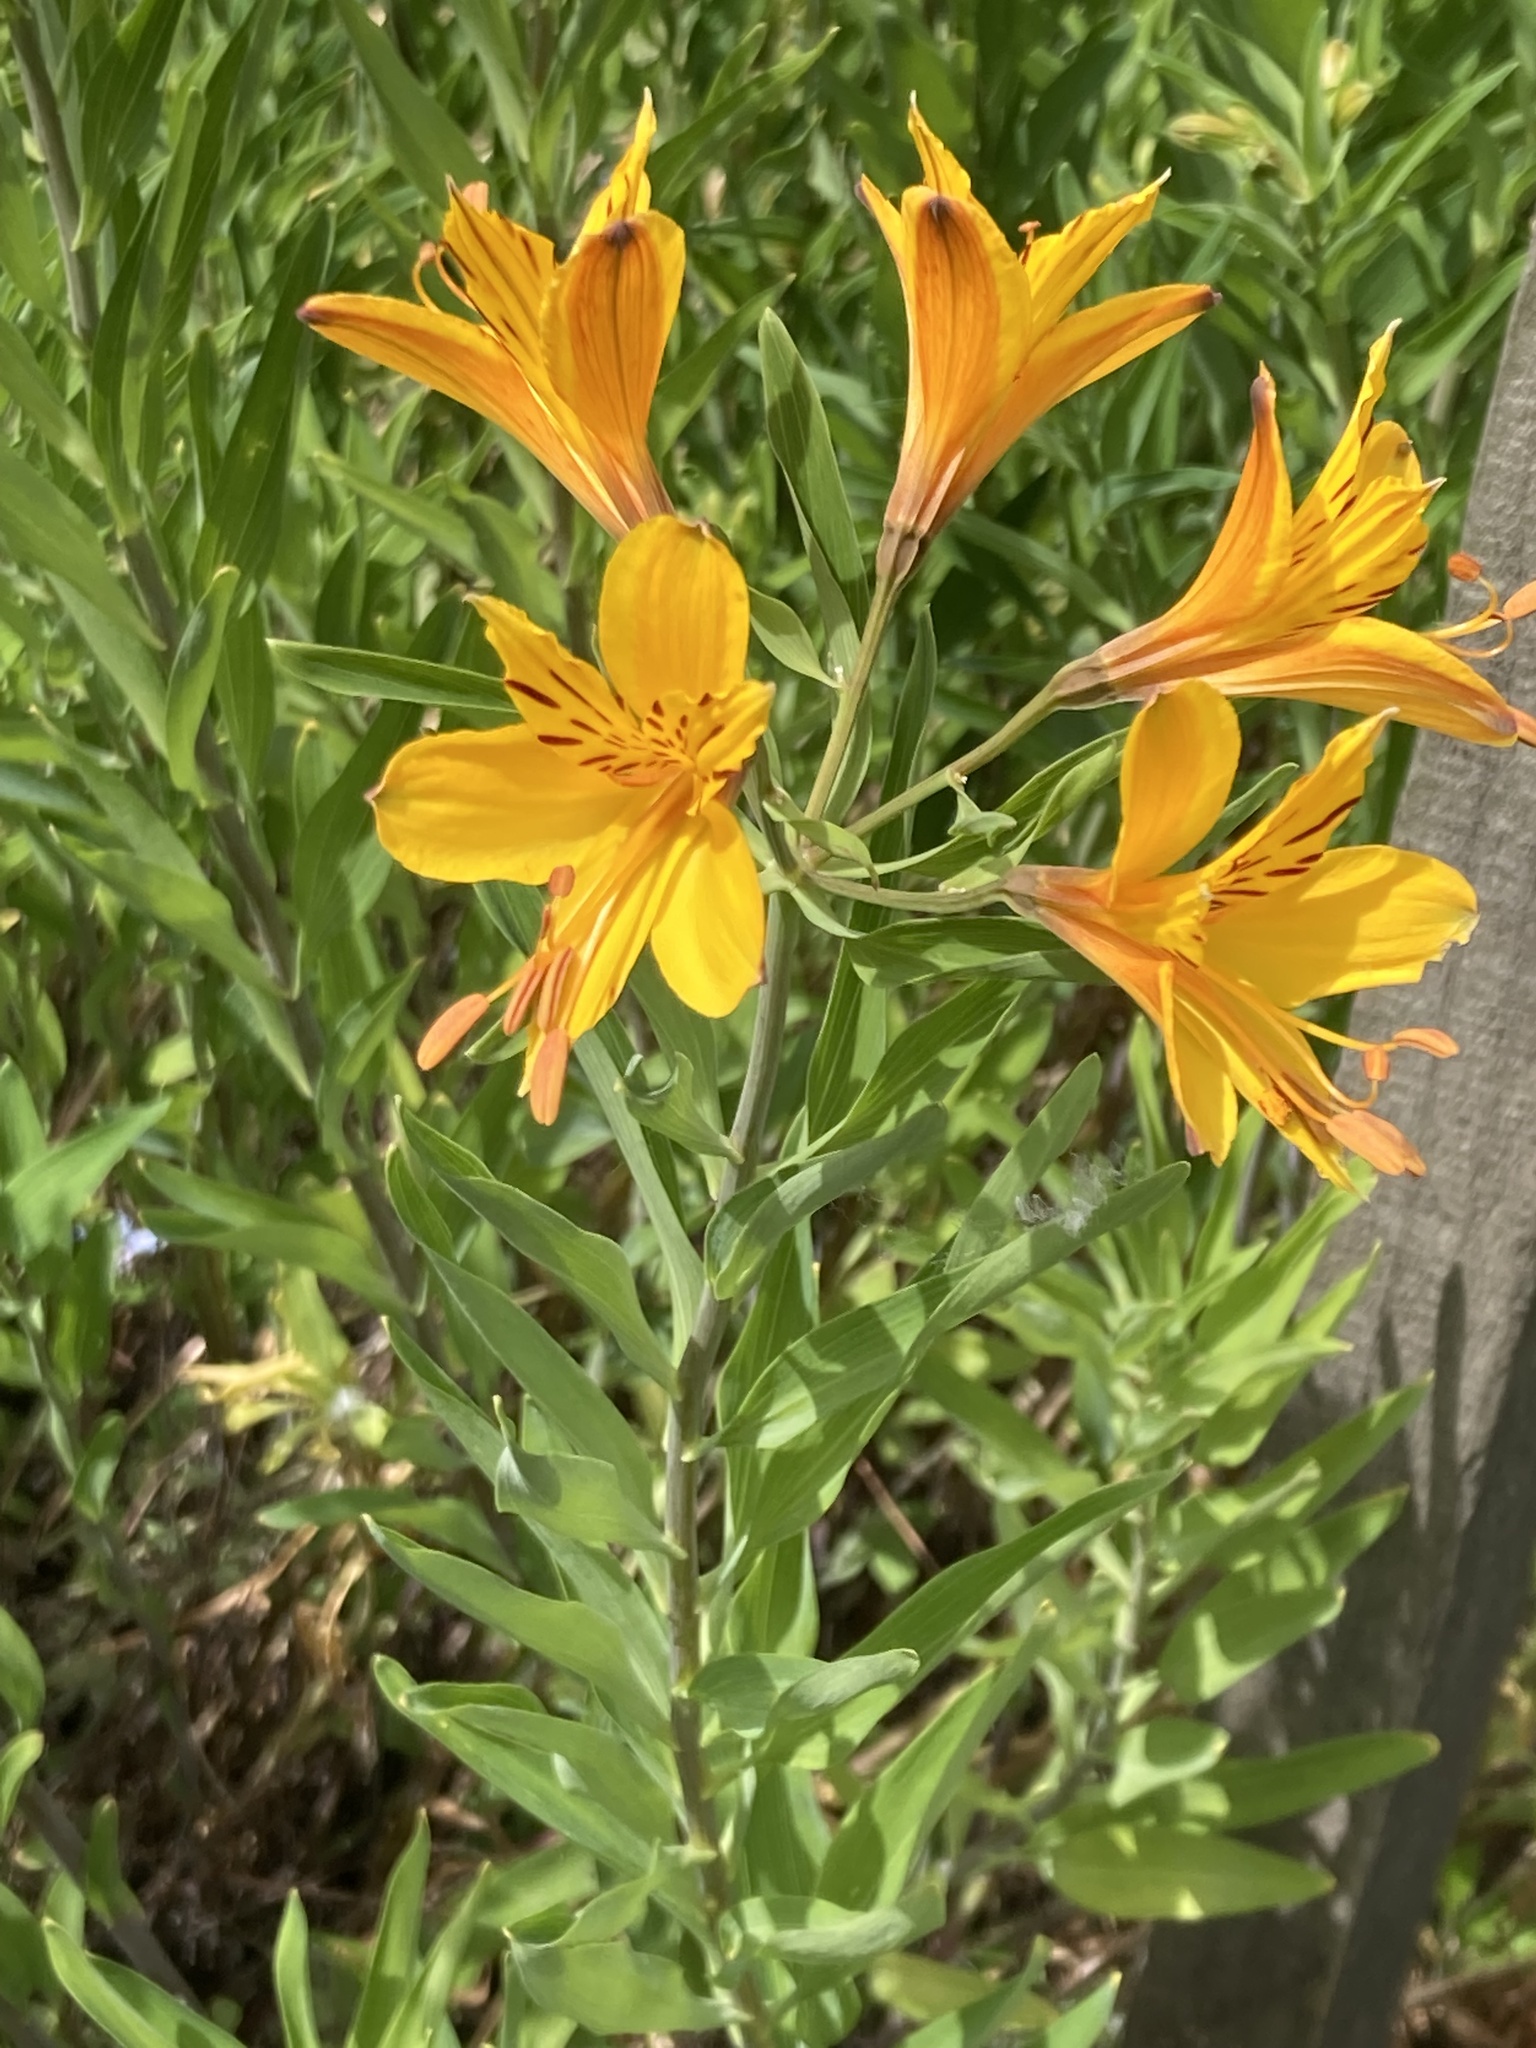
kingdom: Plantae
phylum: Tracheophyta
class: Liliopsida
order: Liliales
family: Alstroemeriaceae
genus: Alstroemeria
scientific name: Alstroemeria aurea
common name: Peruvian lily
